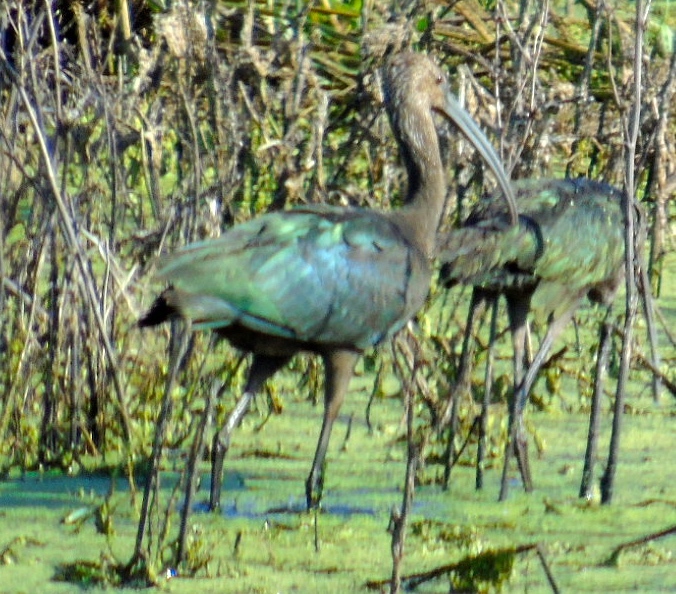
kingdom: Animalia
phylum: Chordata
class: Aves
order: Pelecaniformes
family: Threskiornithidae
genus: Plegadis
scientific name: Plegadis chihi
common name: White-faced ibis
